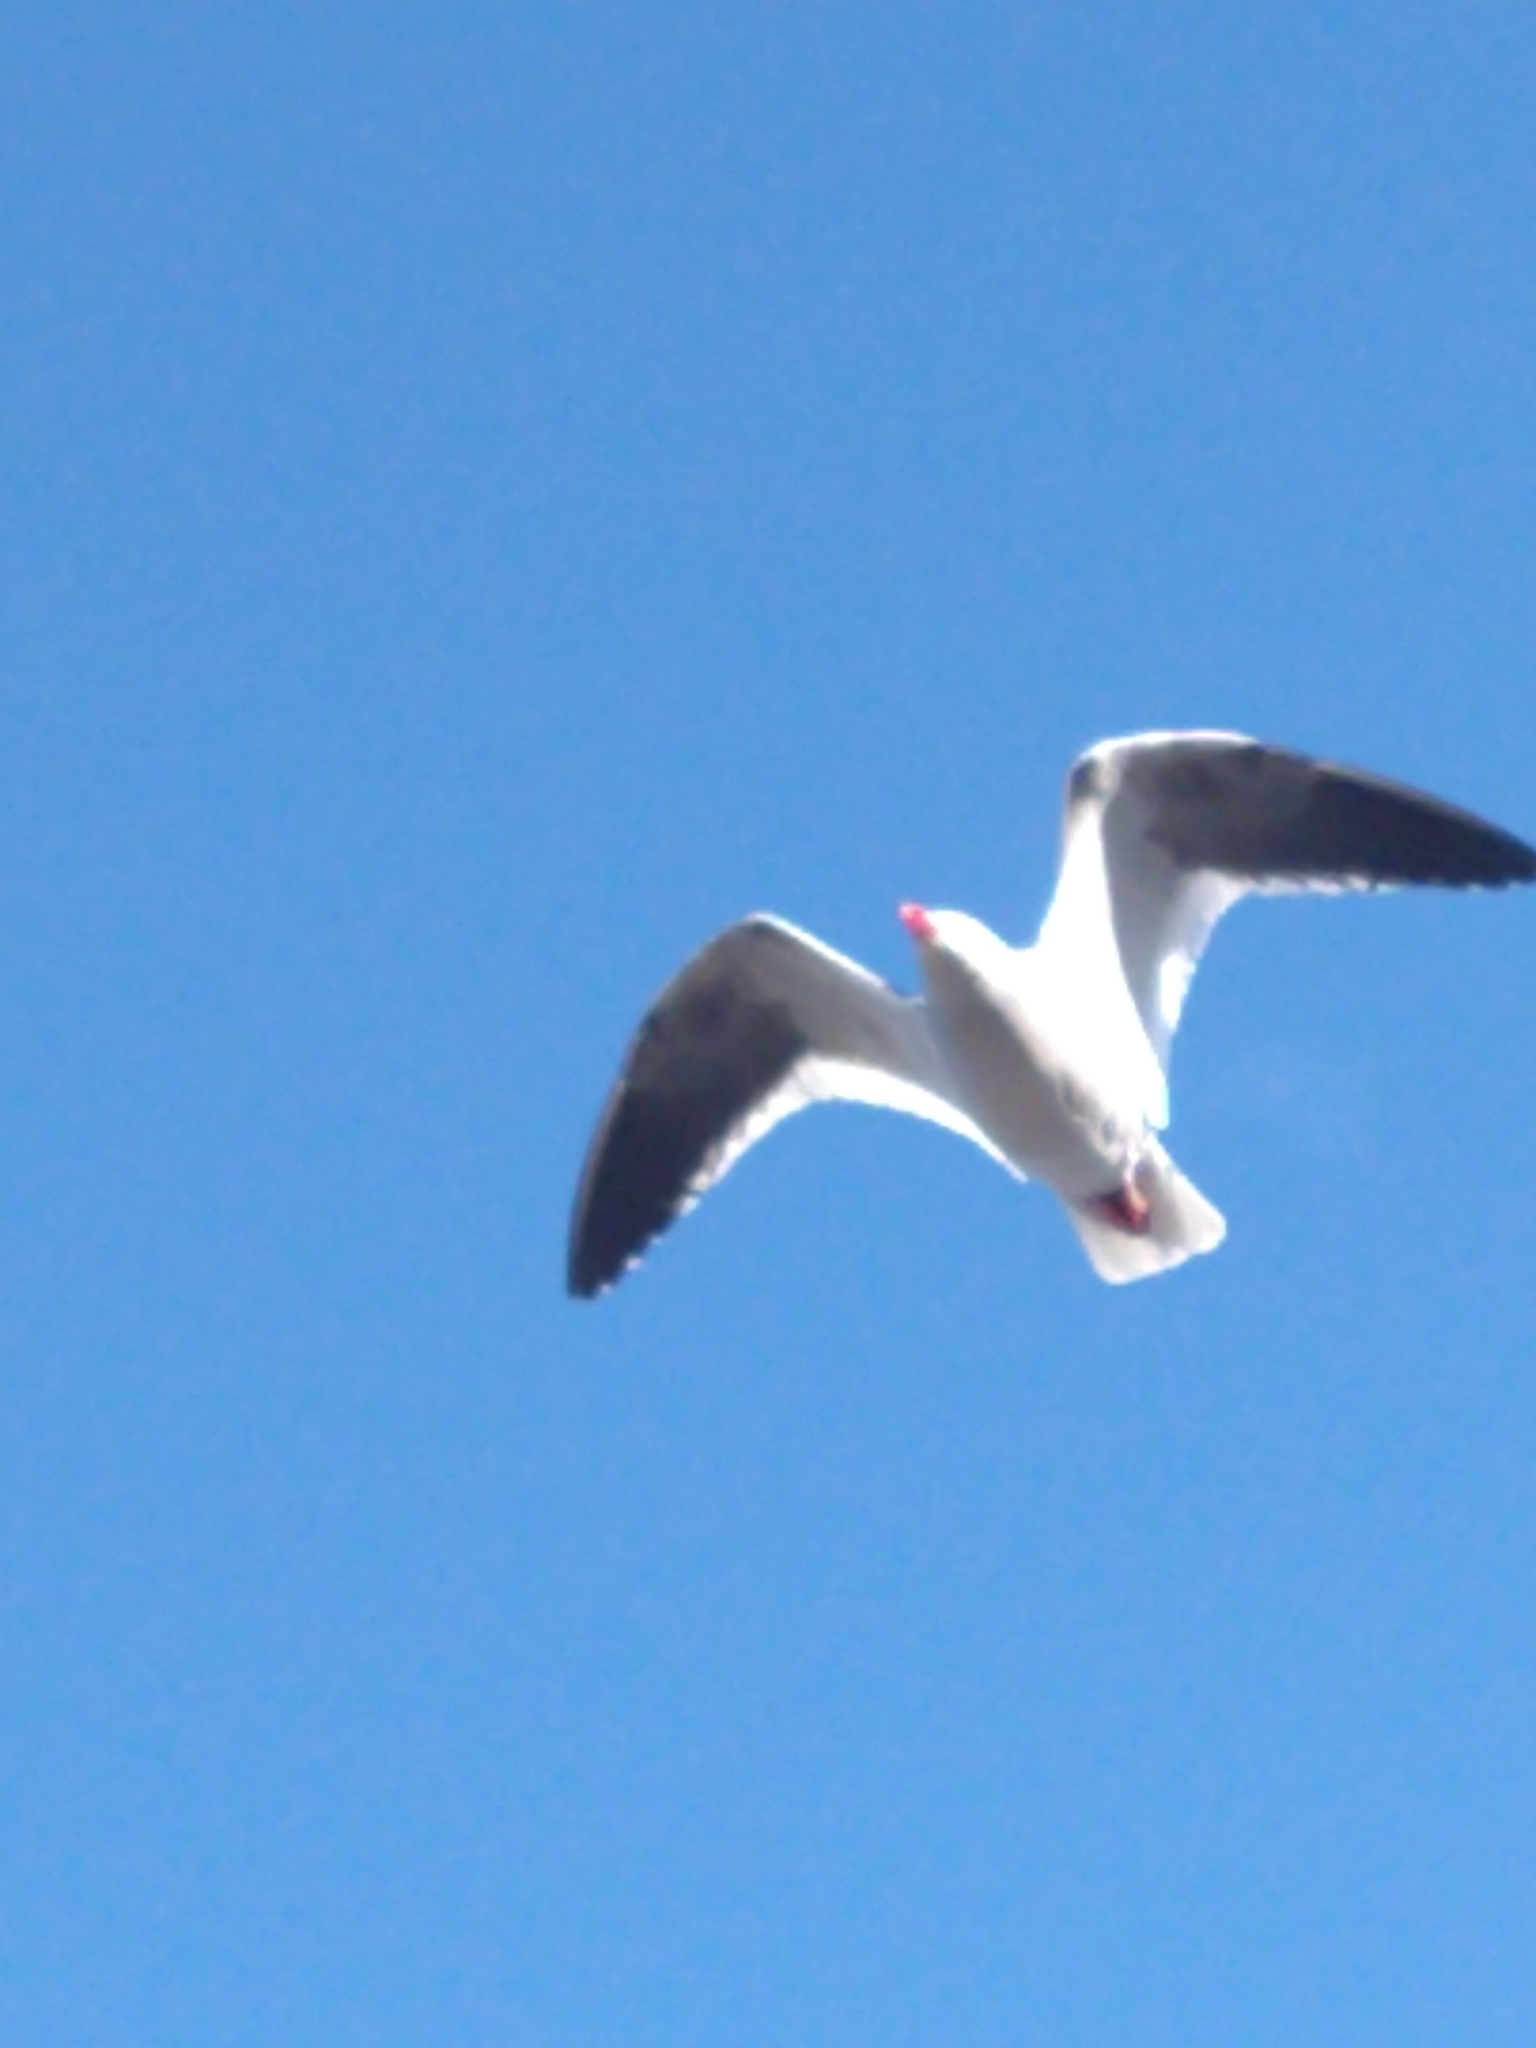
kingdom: Animalia
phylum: Chordata
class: Aves
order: Charadriiformes
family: Laridae
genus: Leucophaeus
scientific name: Leucophaeus scoresbii
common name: Dolphin gull
